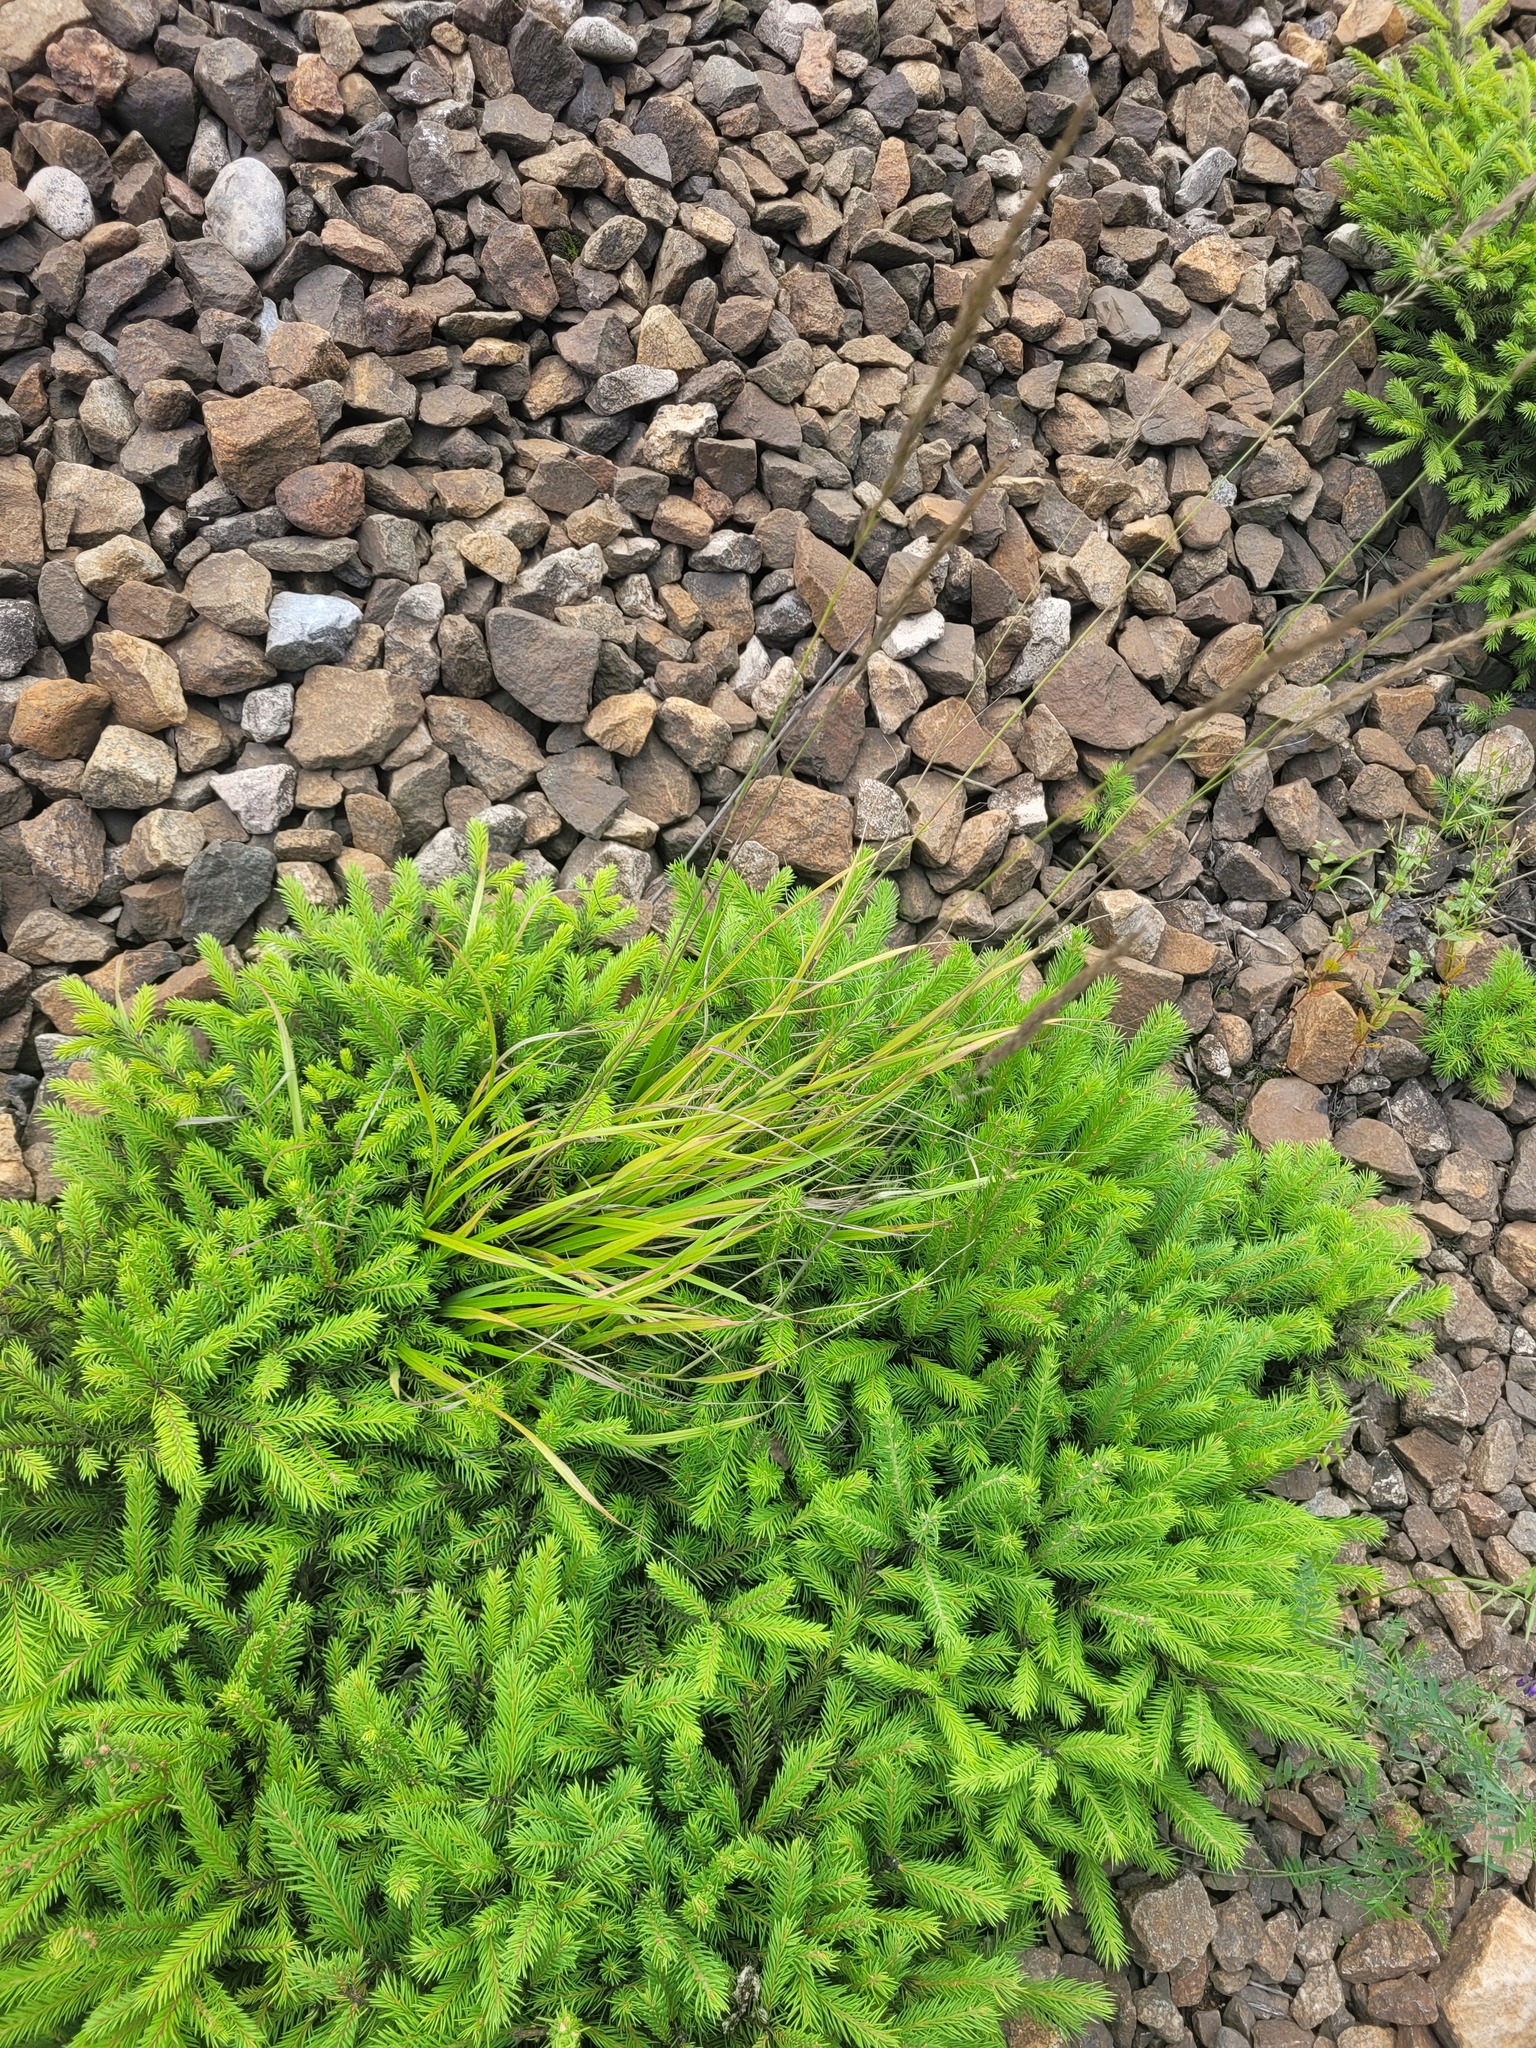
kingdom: Plantae
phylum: Tracheophyta
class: Liliopsida
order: Poales
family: Poaceae
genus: Calamagrostis
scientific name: Calamagrostis arundinacea
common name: Metskastik
